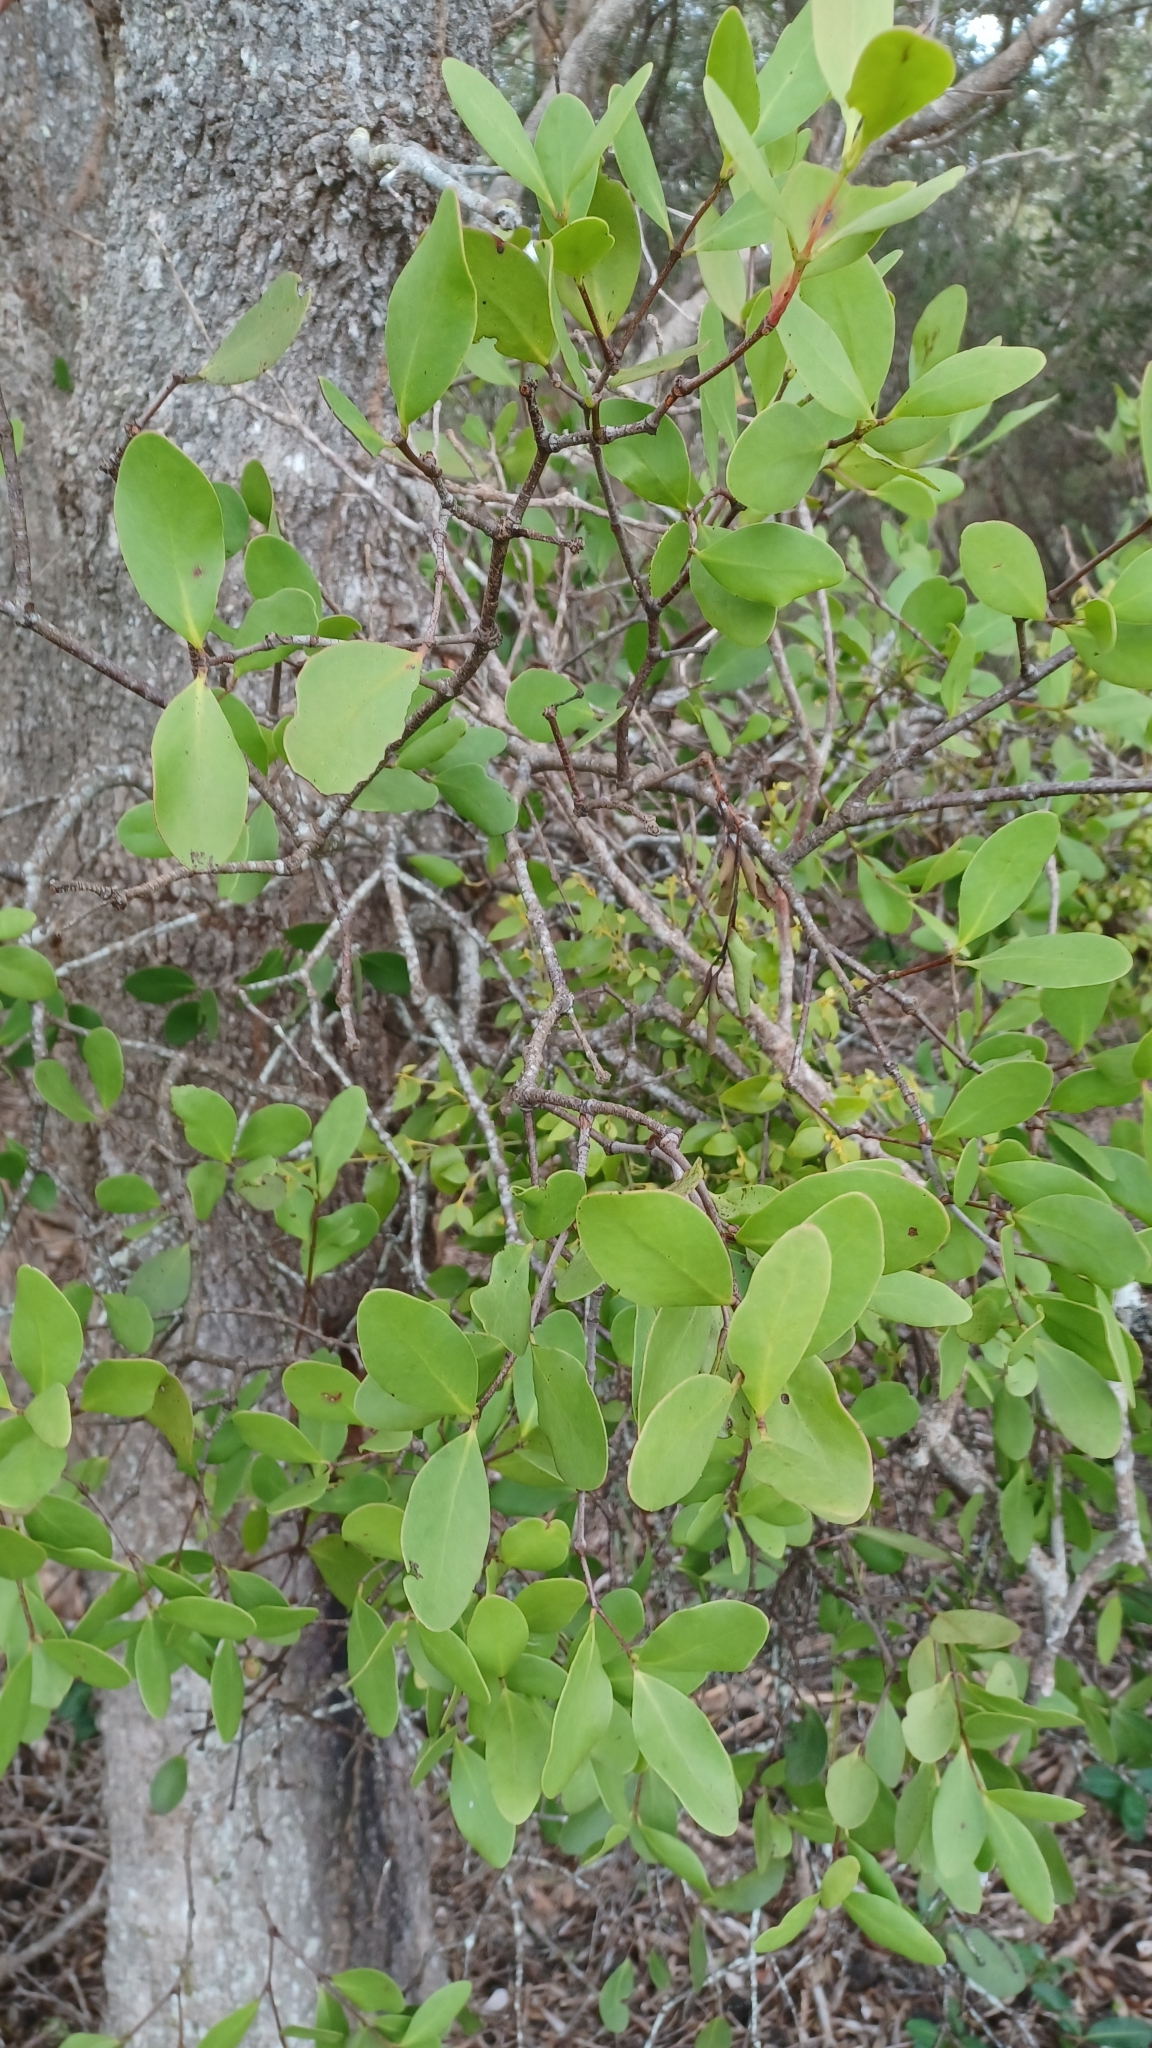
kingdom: Plantae
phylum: Tracheophyta
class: Magnoliopsida
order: Santalales
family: Loranthaceae
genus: Muellerina
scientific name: Muellerina celastroides
